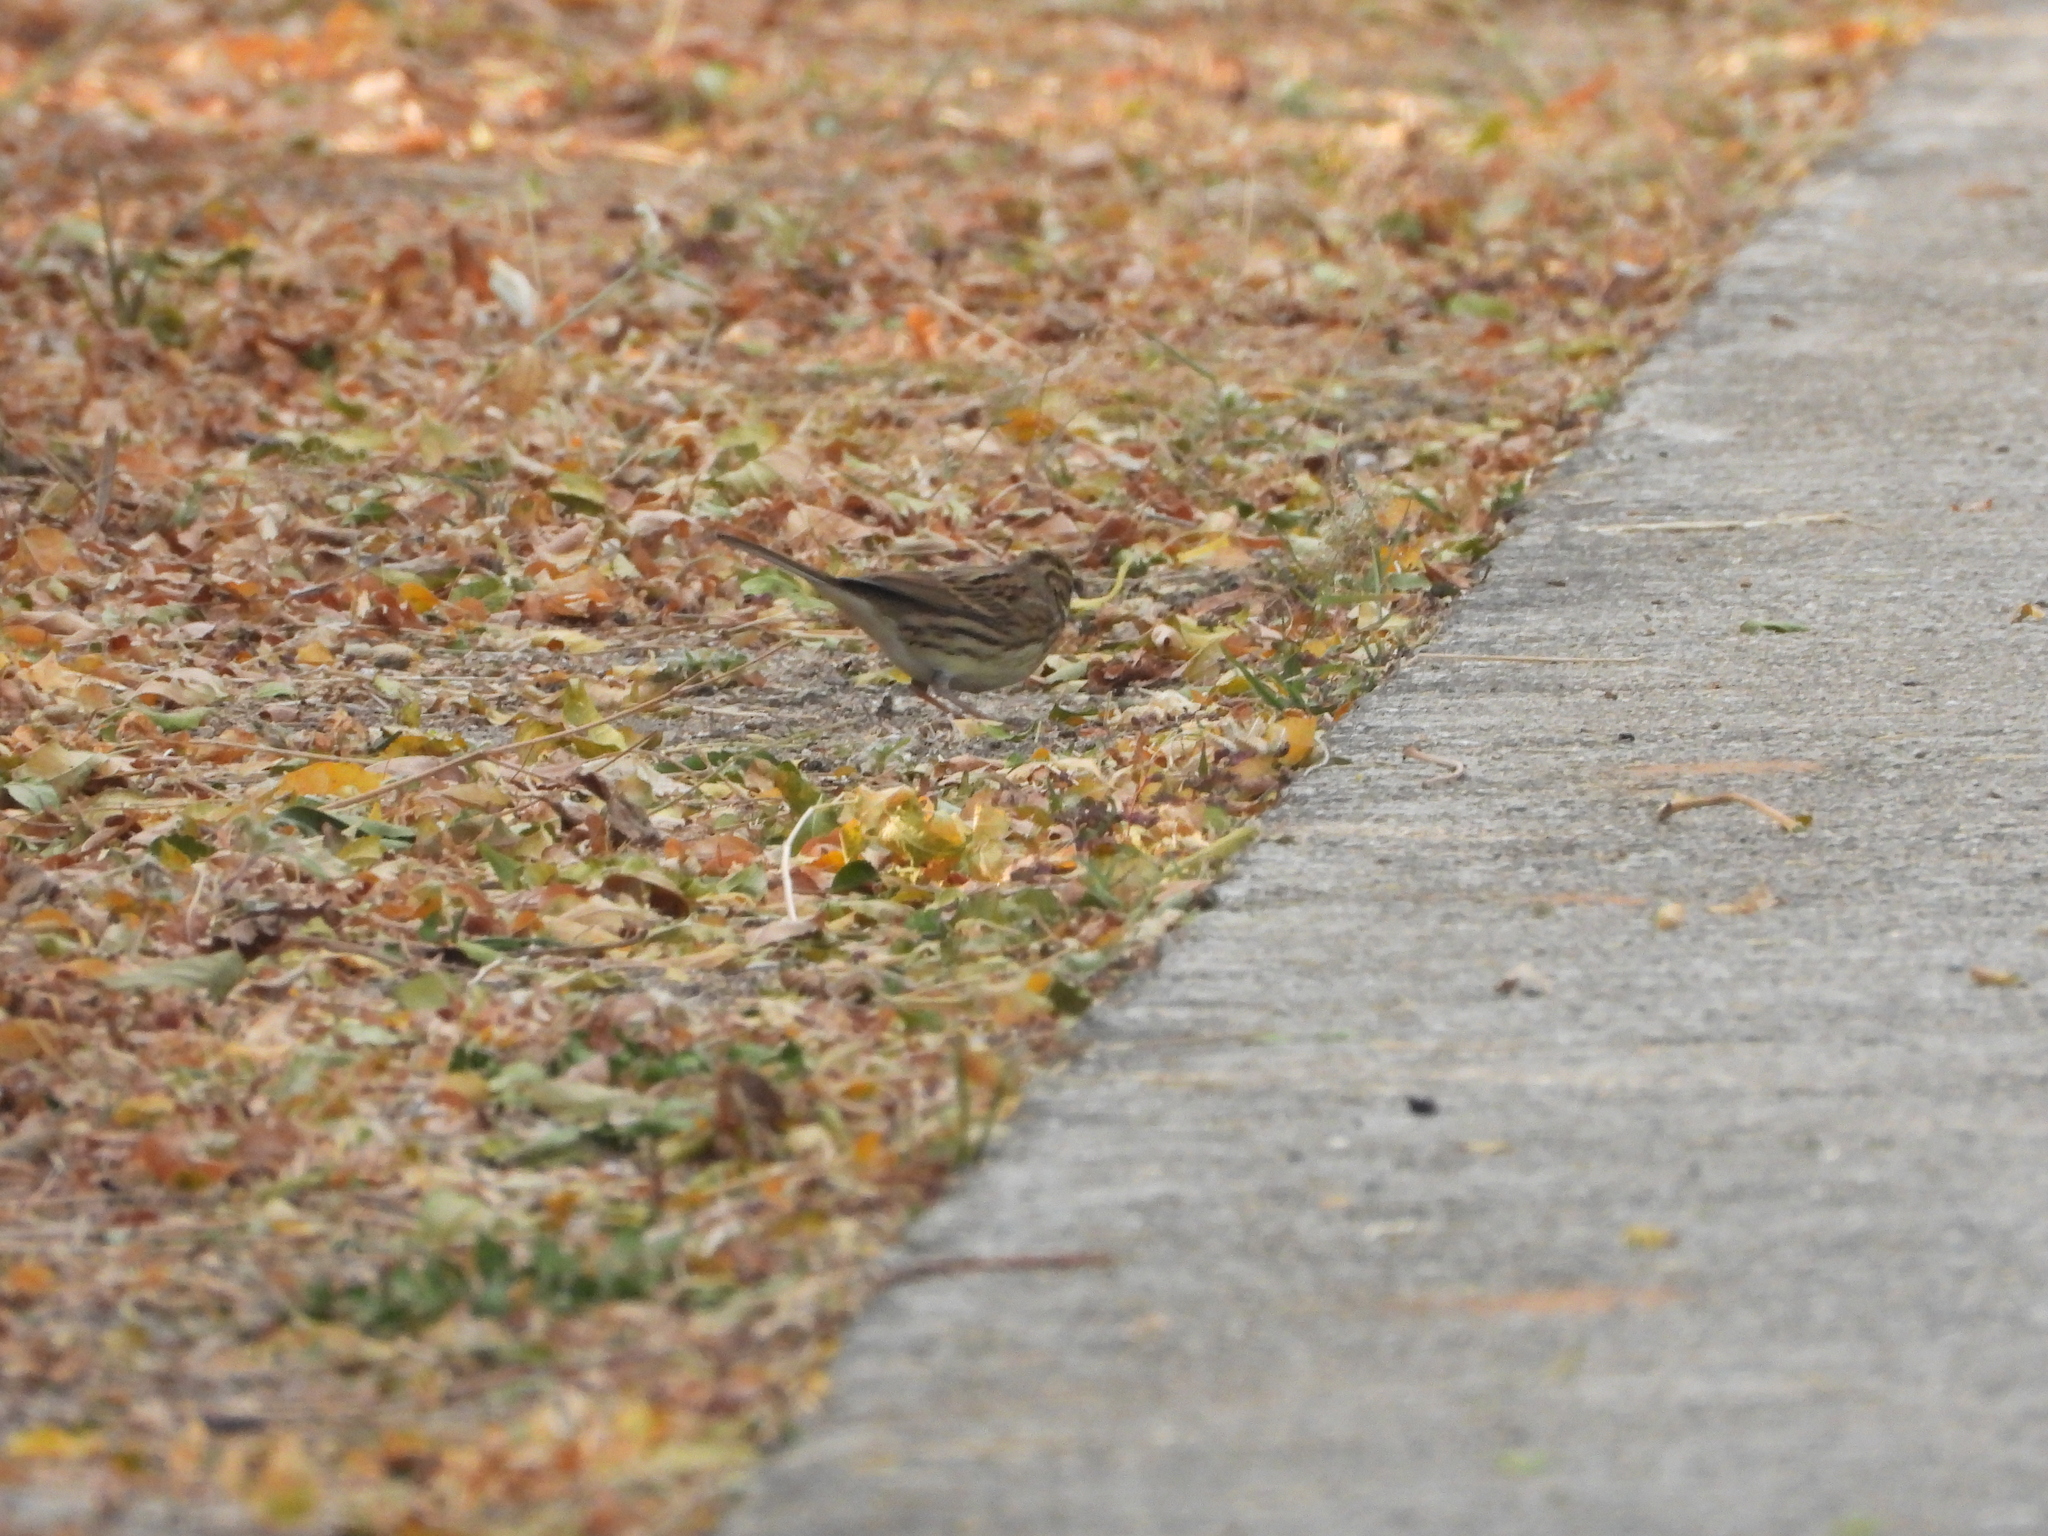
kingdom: Animalia
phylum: Chordata
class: Aves
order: Passeriformes
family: Emberizidae
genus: Emberiza
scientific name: Emberiza spodocephala
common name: Black-faced bunting
